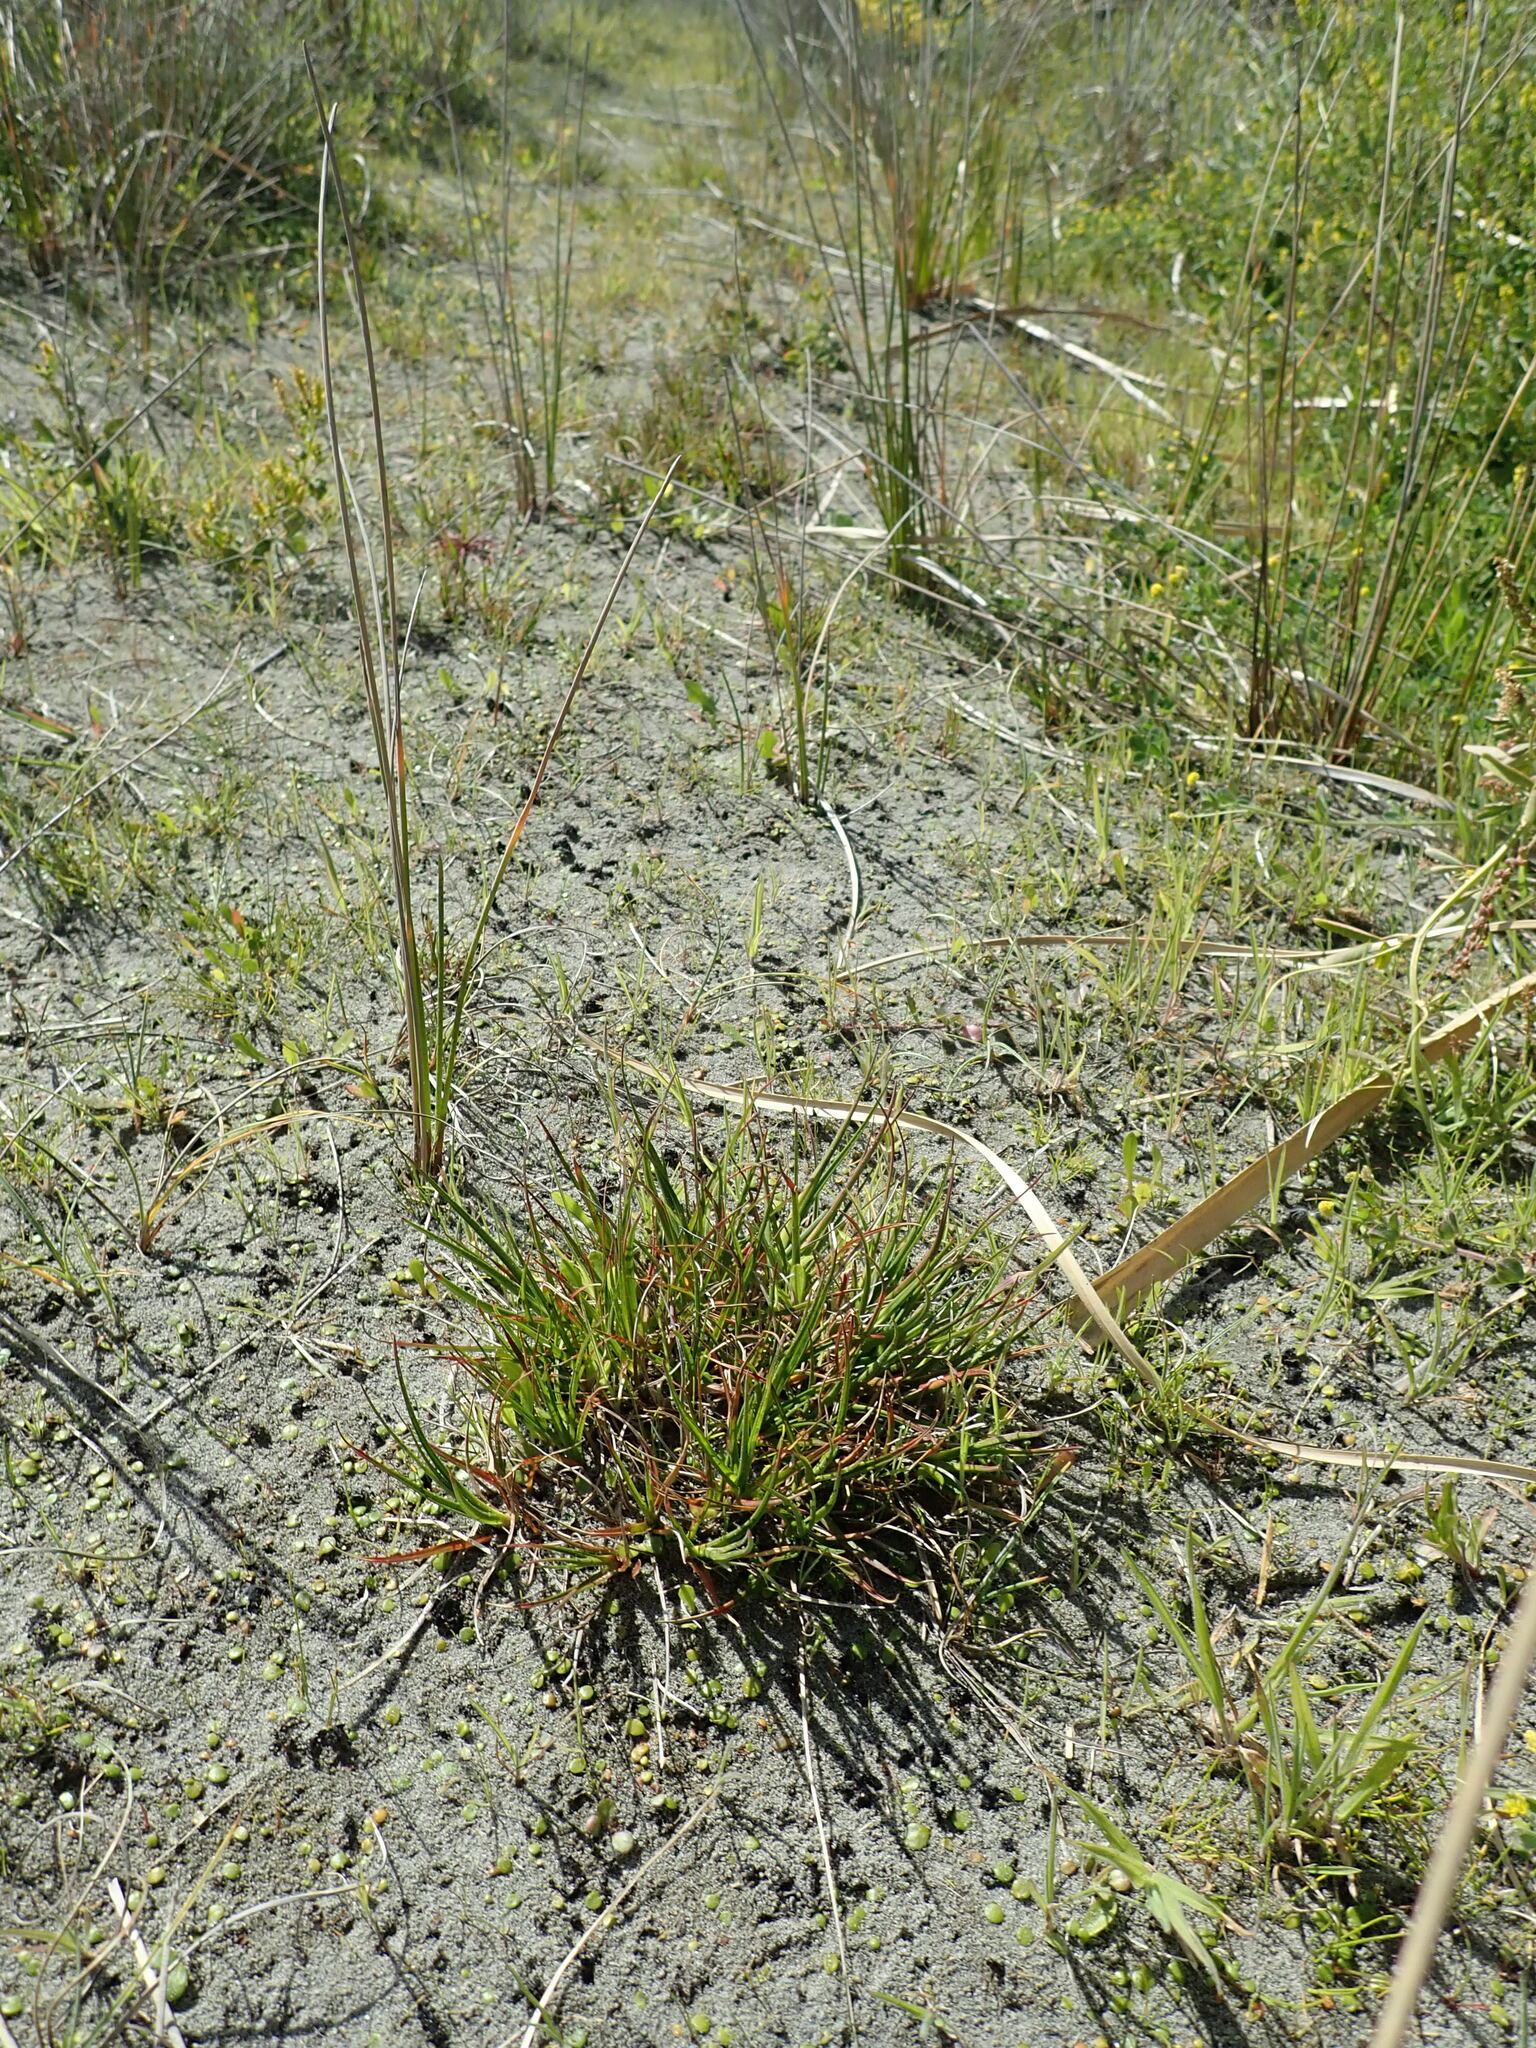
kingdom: Plantae
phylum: Tracheophyta
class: Liliopsida
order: Poales
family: Juncaceae
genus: Juncus
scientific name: Juncus caespiticius
